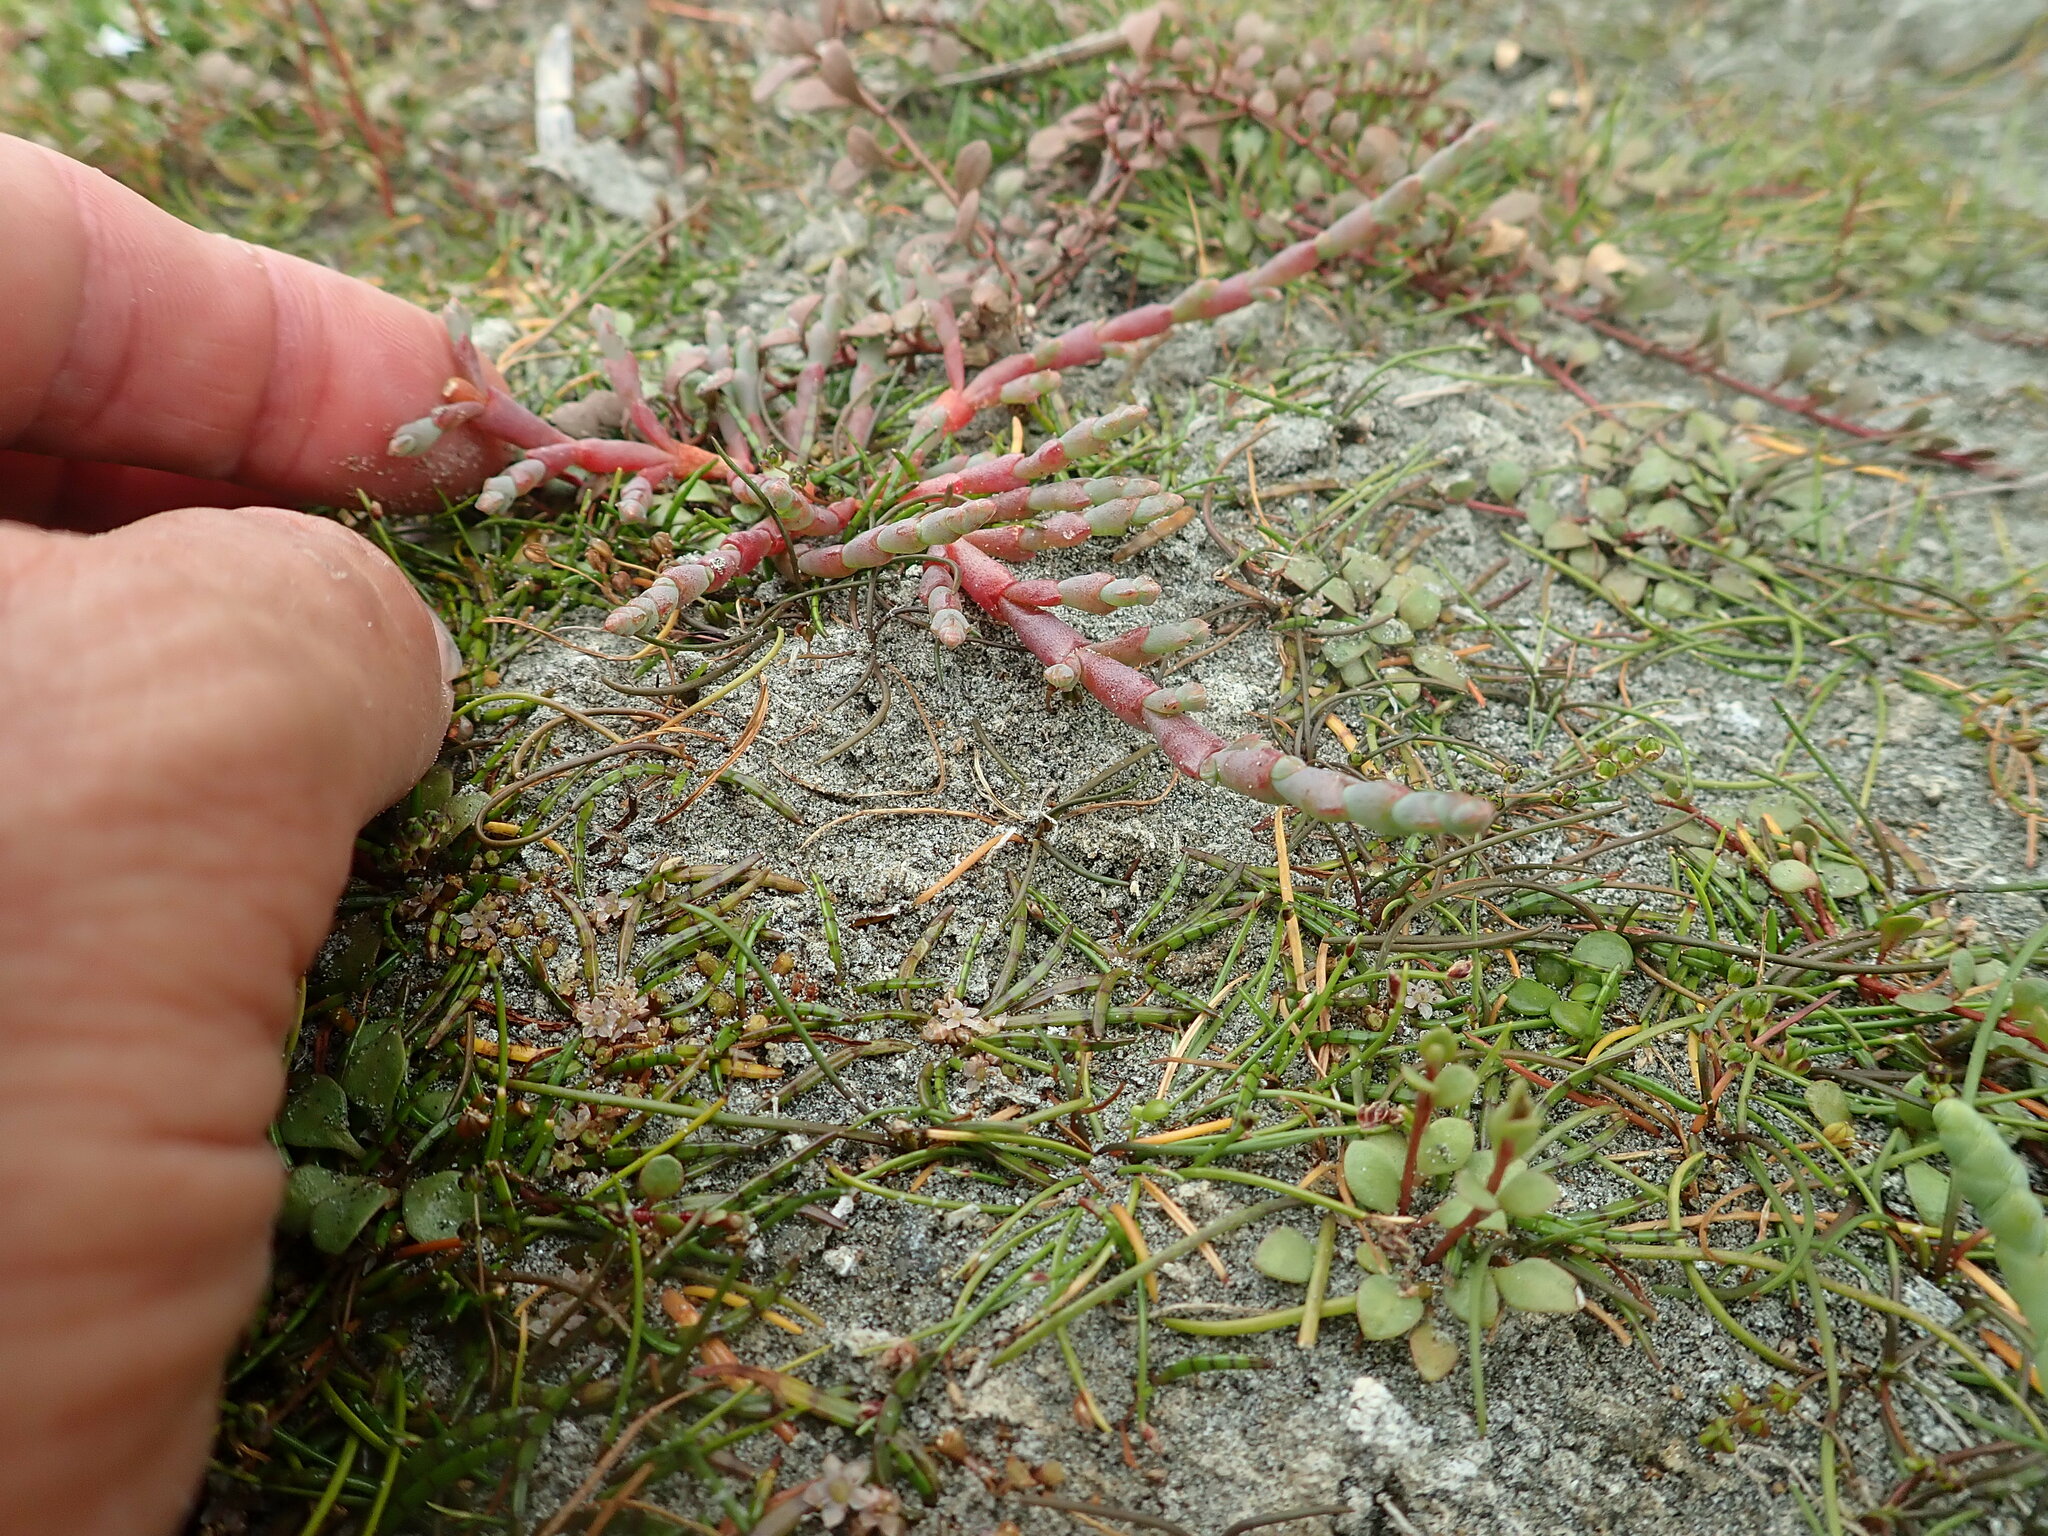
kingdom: Plantae
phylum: Tracheophyta
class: Magnoliopsida
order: Caryophyllales
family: Amaranthaceae
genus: Salicornia
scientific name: Salicornia quinqueflora
